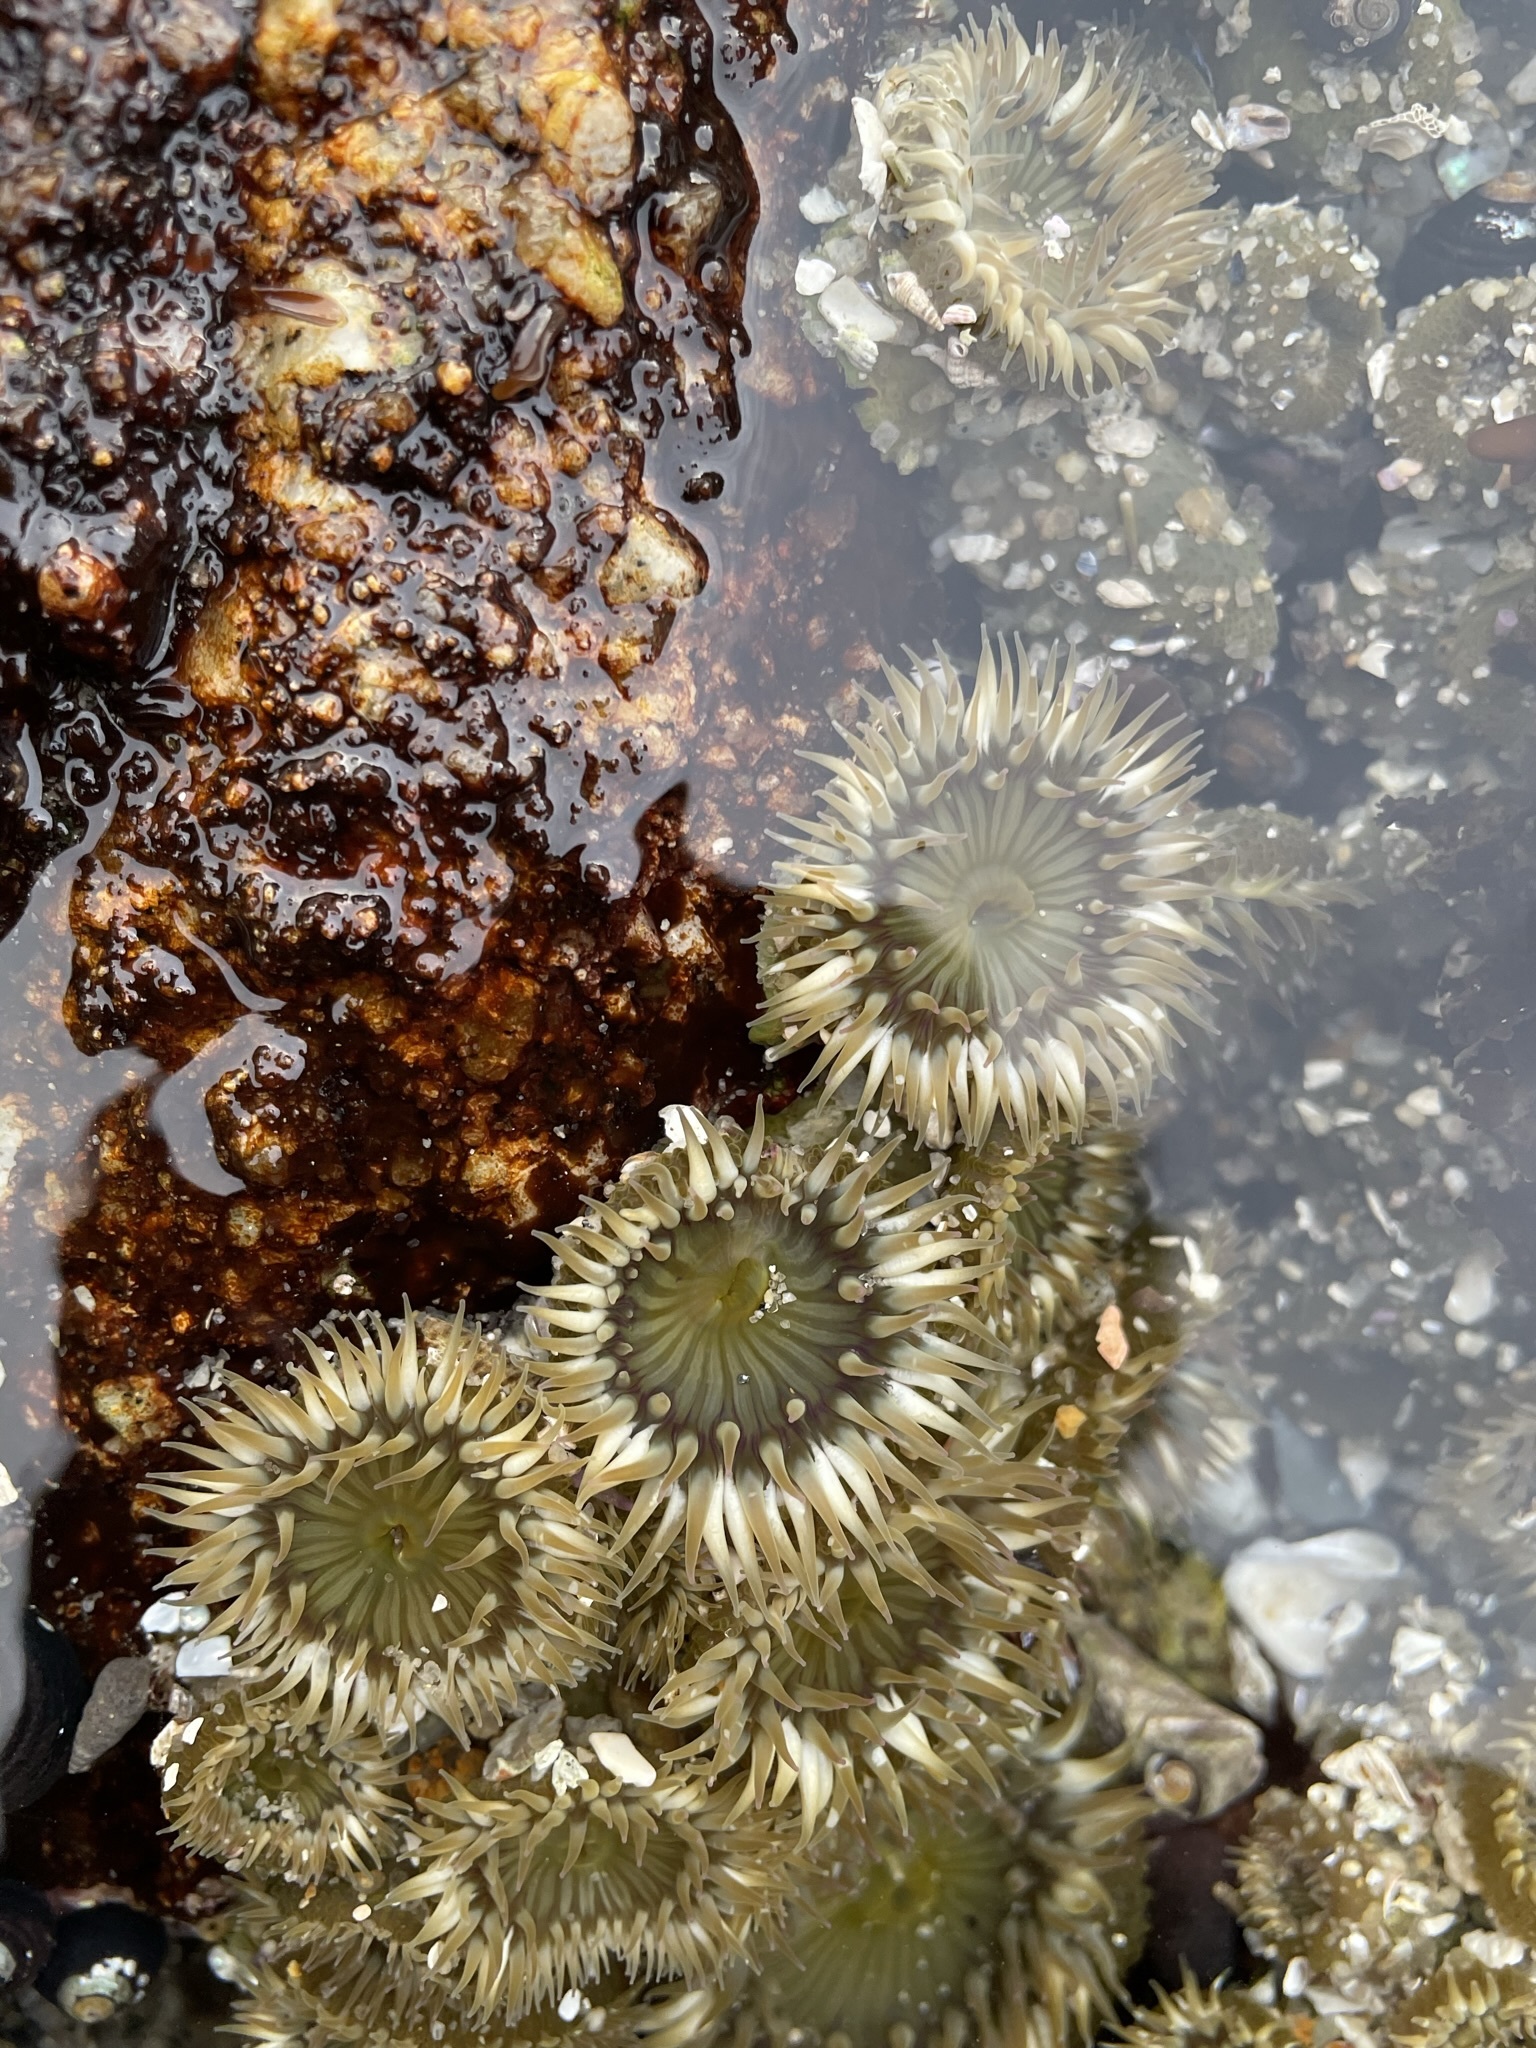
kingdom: Animalia
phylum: Cnidaria
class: Anthozoa
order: Actiniaria
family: Actiniidae
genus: Anthopleura
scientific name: Anthopleura elegantissima
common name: Clonal anemone
